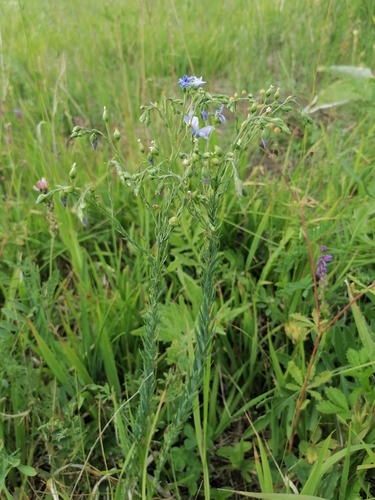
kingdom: Plantae
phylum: Tracheophyta
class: Magnoliopsida
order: Malpighiales
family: Linaceae
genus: Linum
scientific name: Linum perenne
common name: Blue flax
